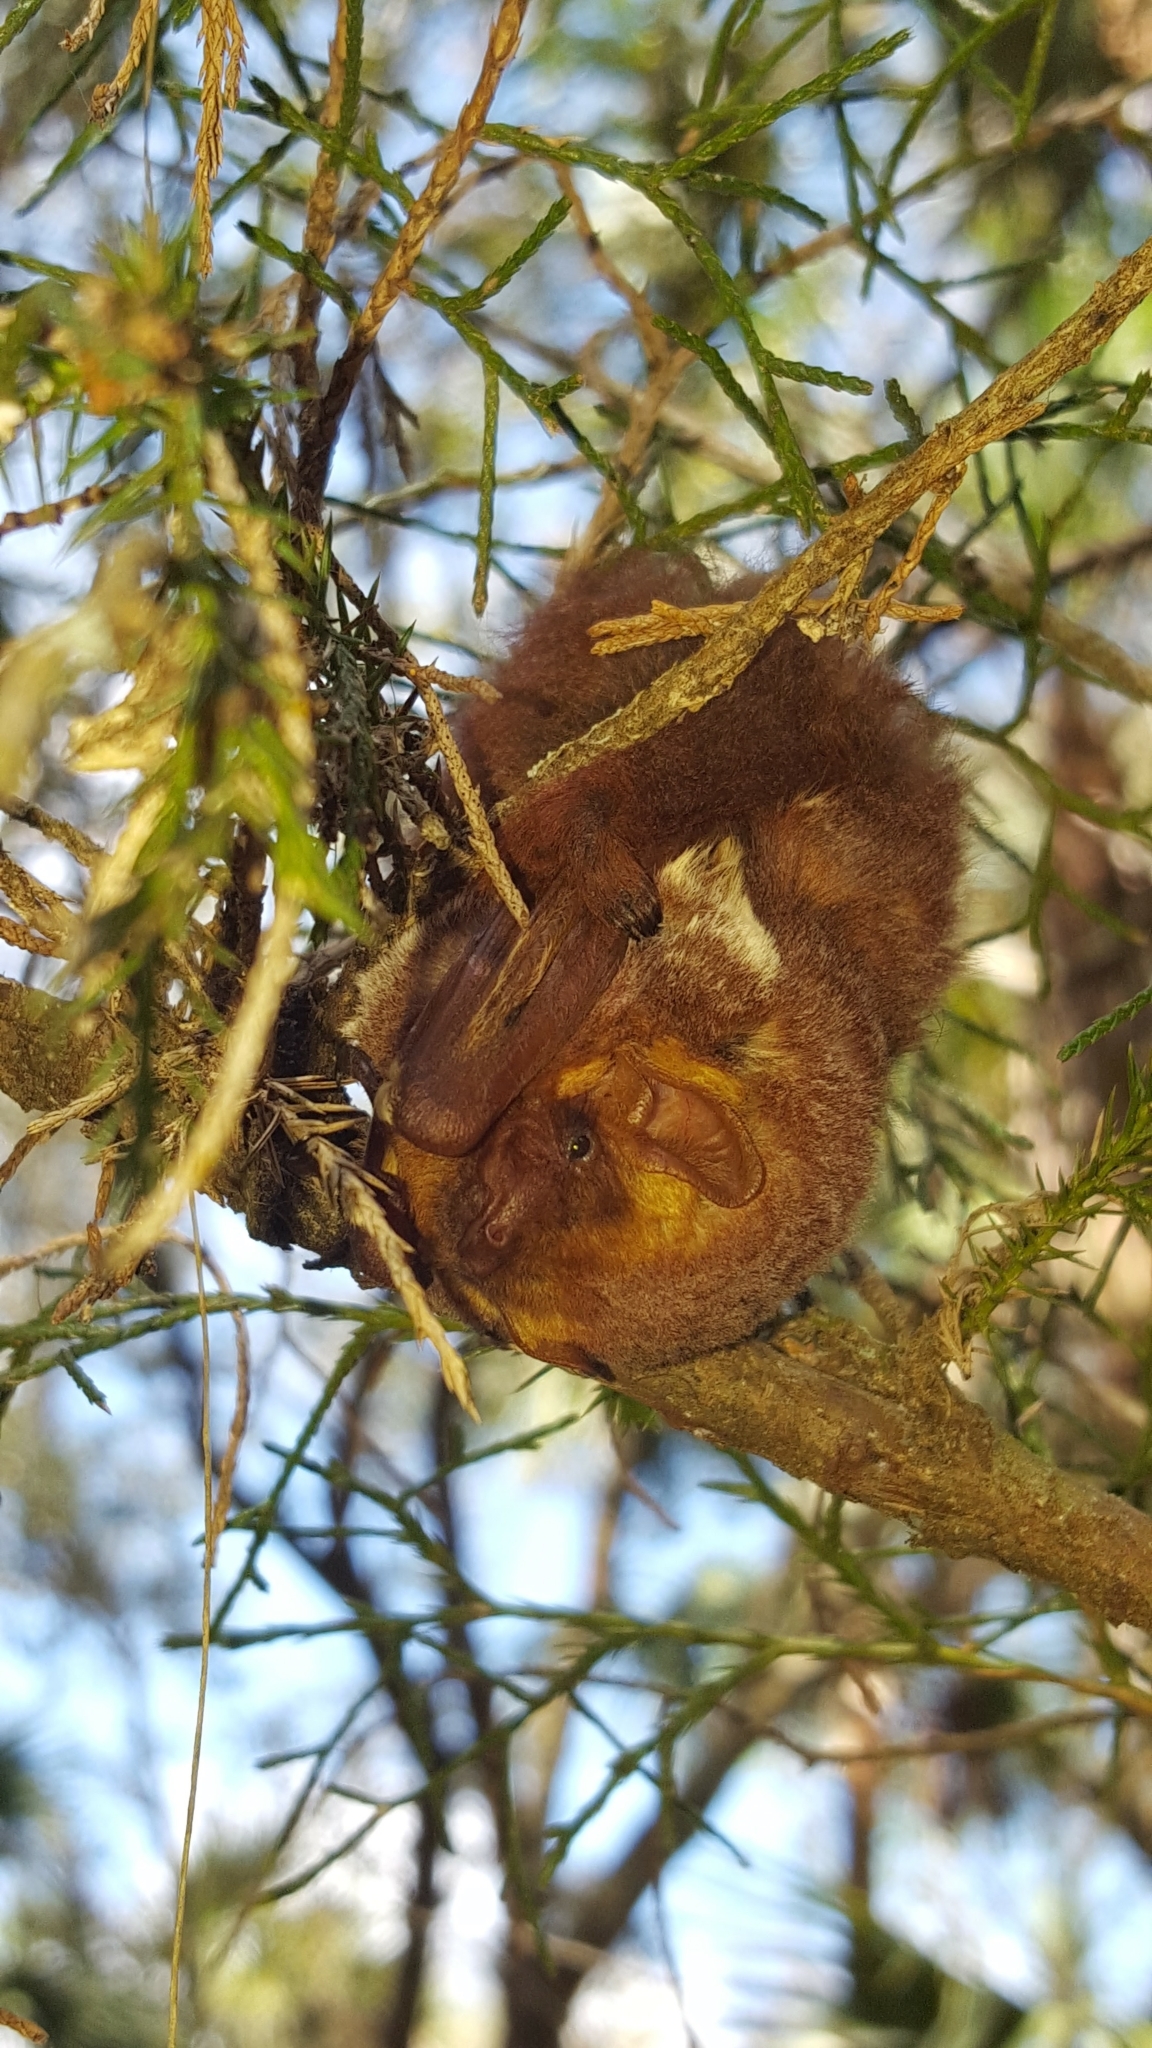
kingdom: Animalia
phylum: Chordata
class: Mammalia
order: Chiroptera
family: Vespertilionidae
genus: Lasiurus
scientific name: Lasiurus seminolus
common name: Seminole bat
